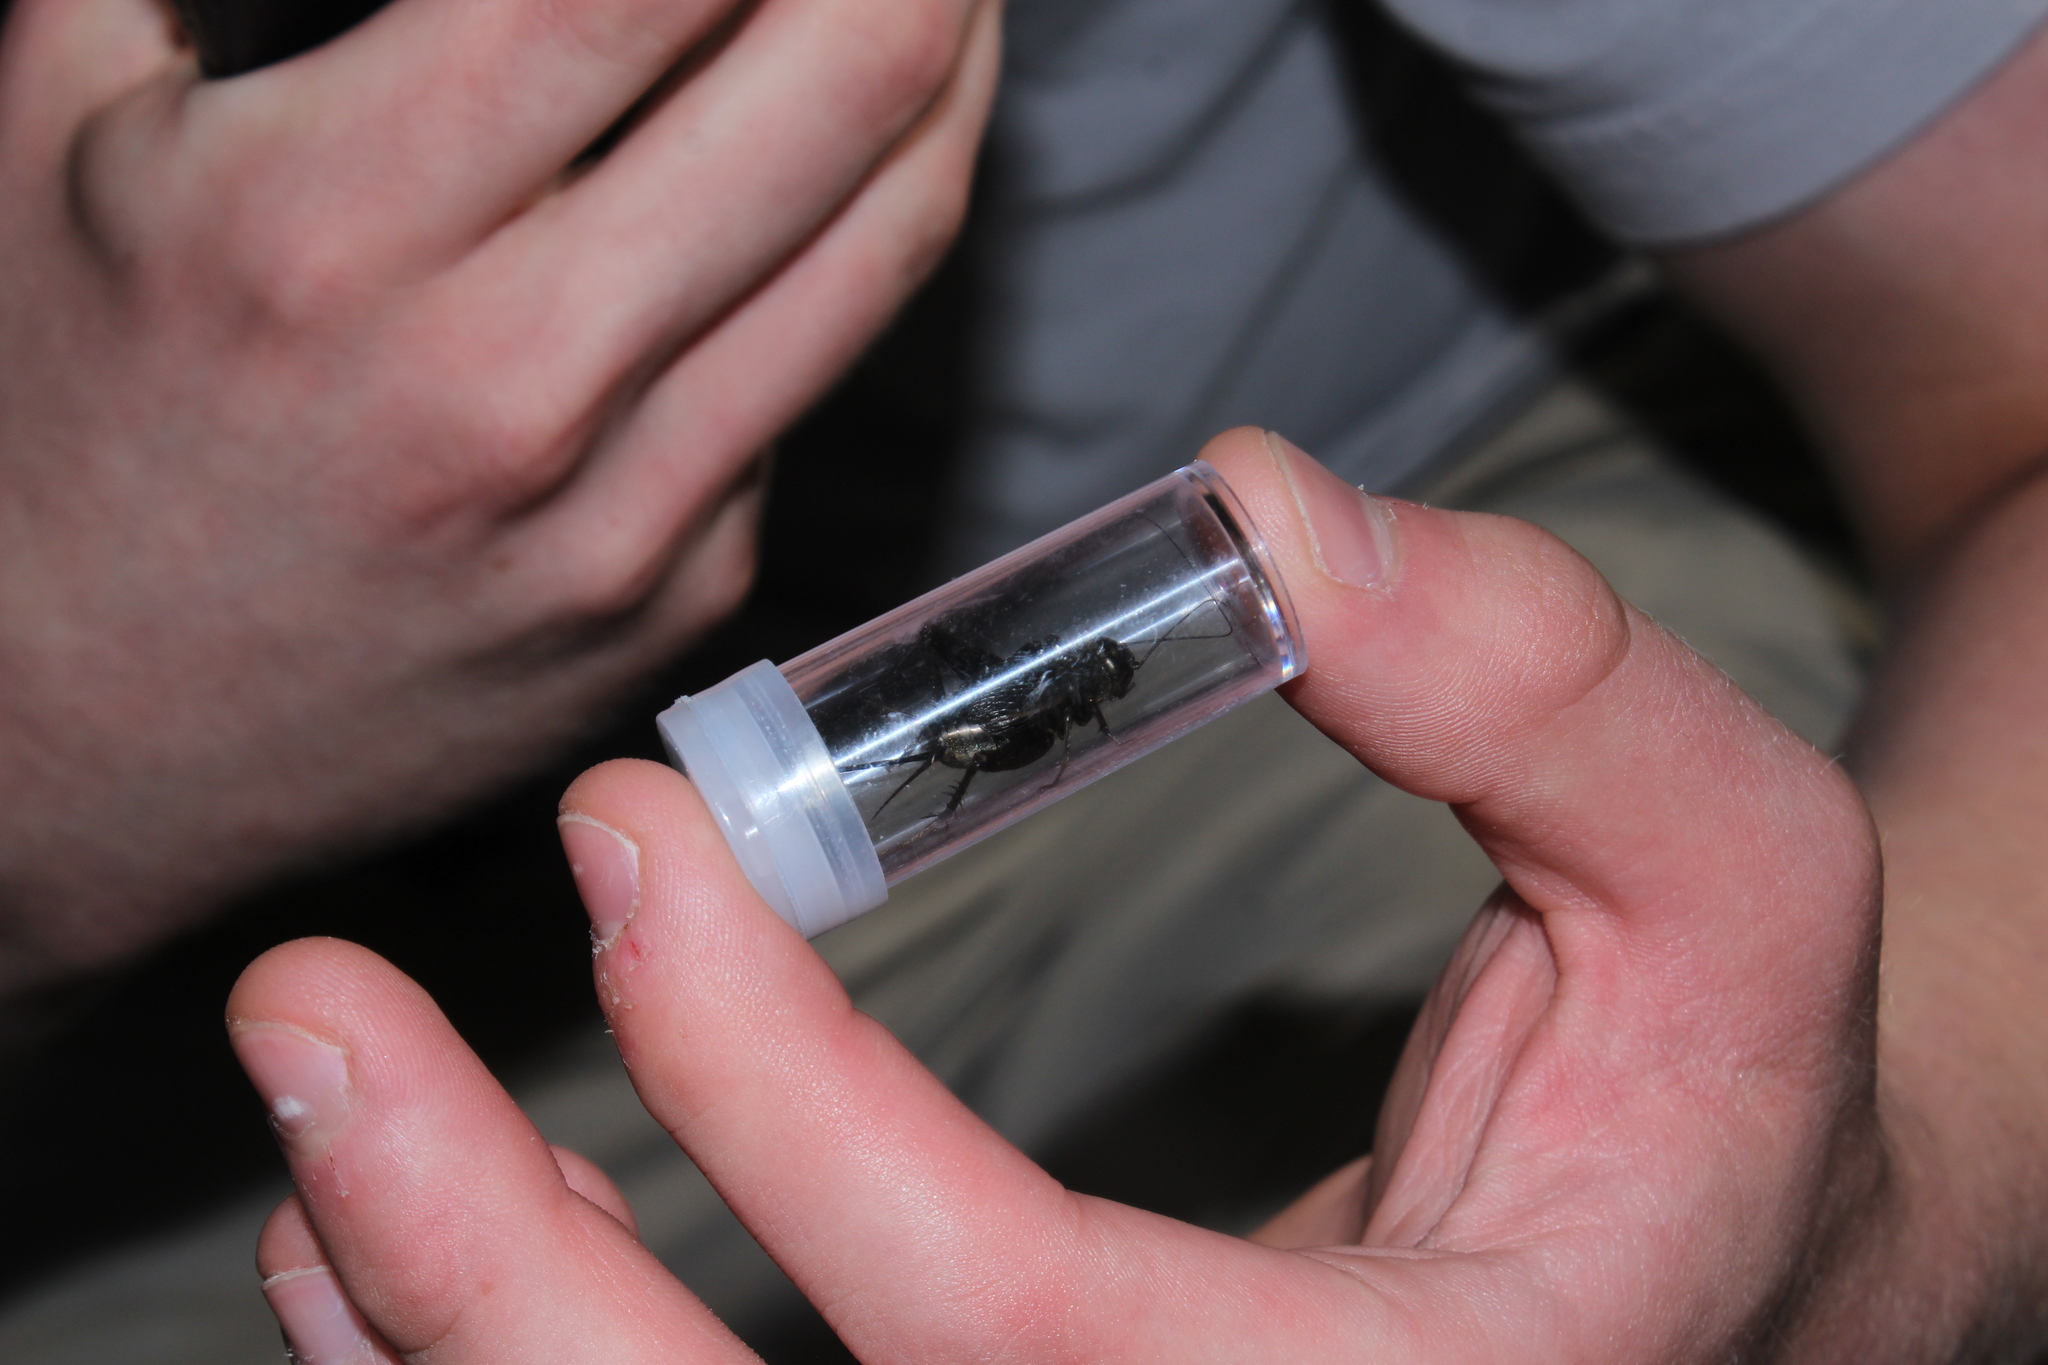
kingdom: Animalia
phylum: Arthropoda
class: Insecta
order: Orthoptera
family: Gryllidae
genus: Gryllus
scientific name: Gryllus pennsylvanicus
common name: Fall field cricket
